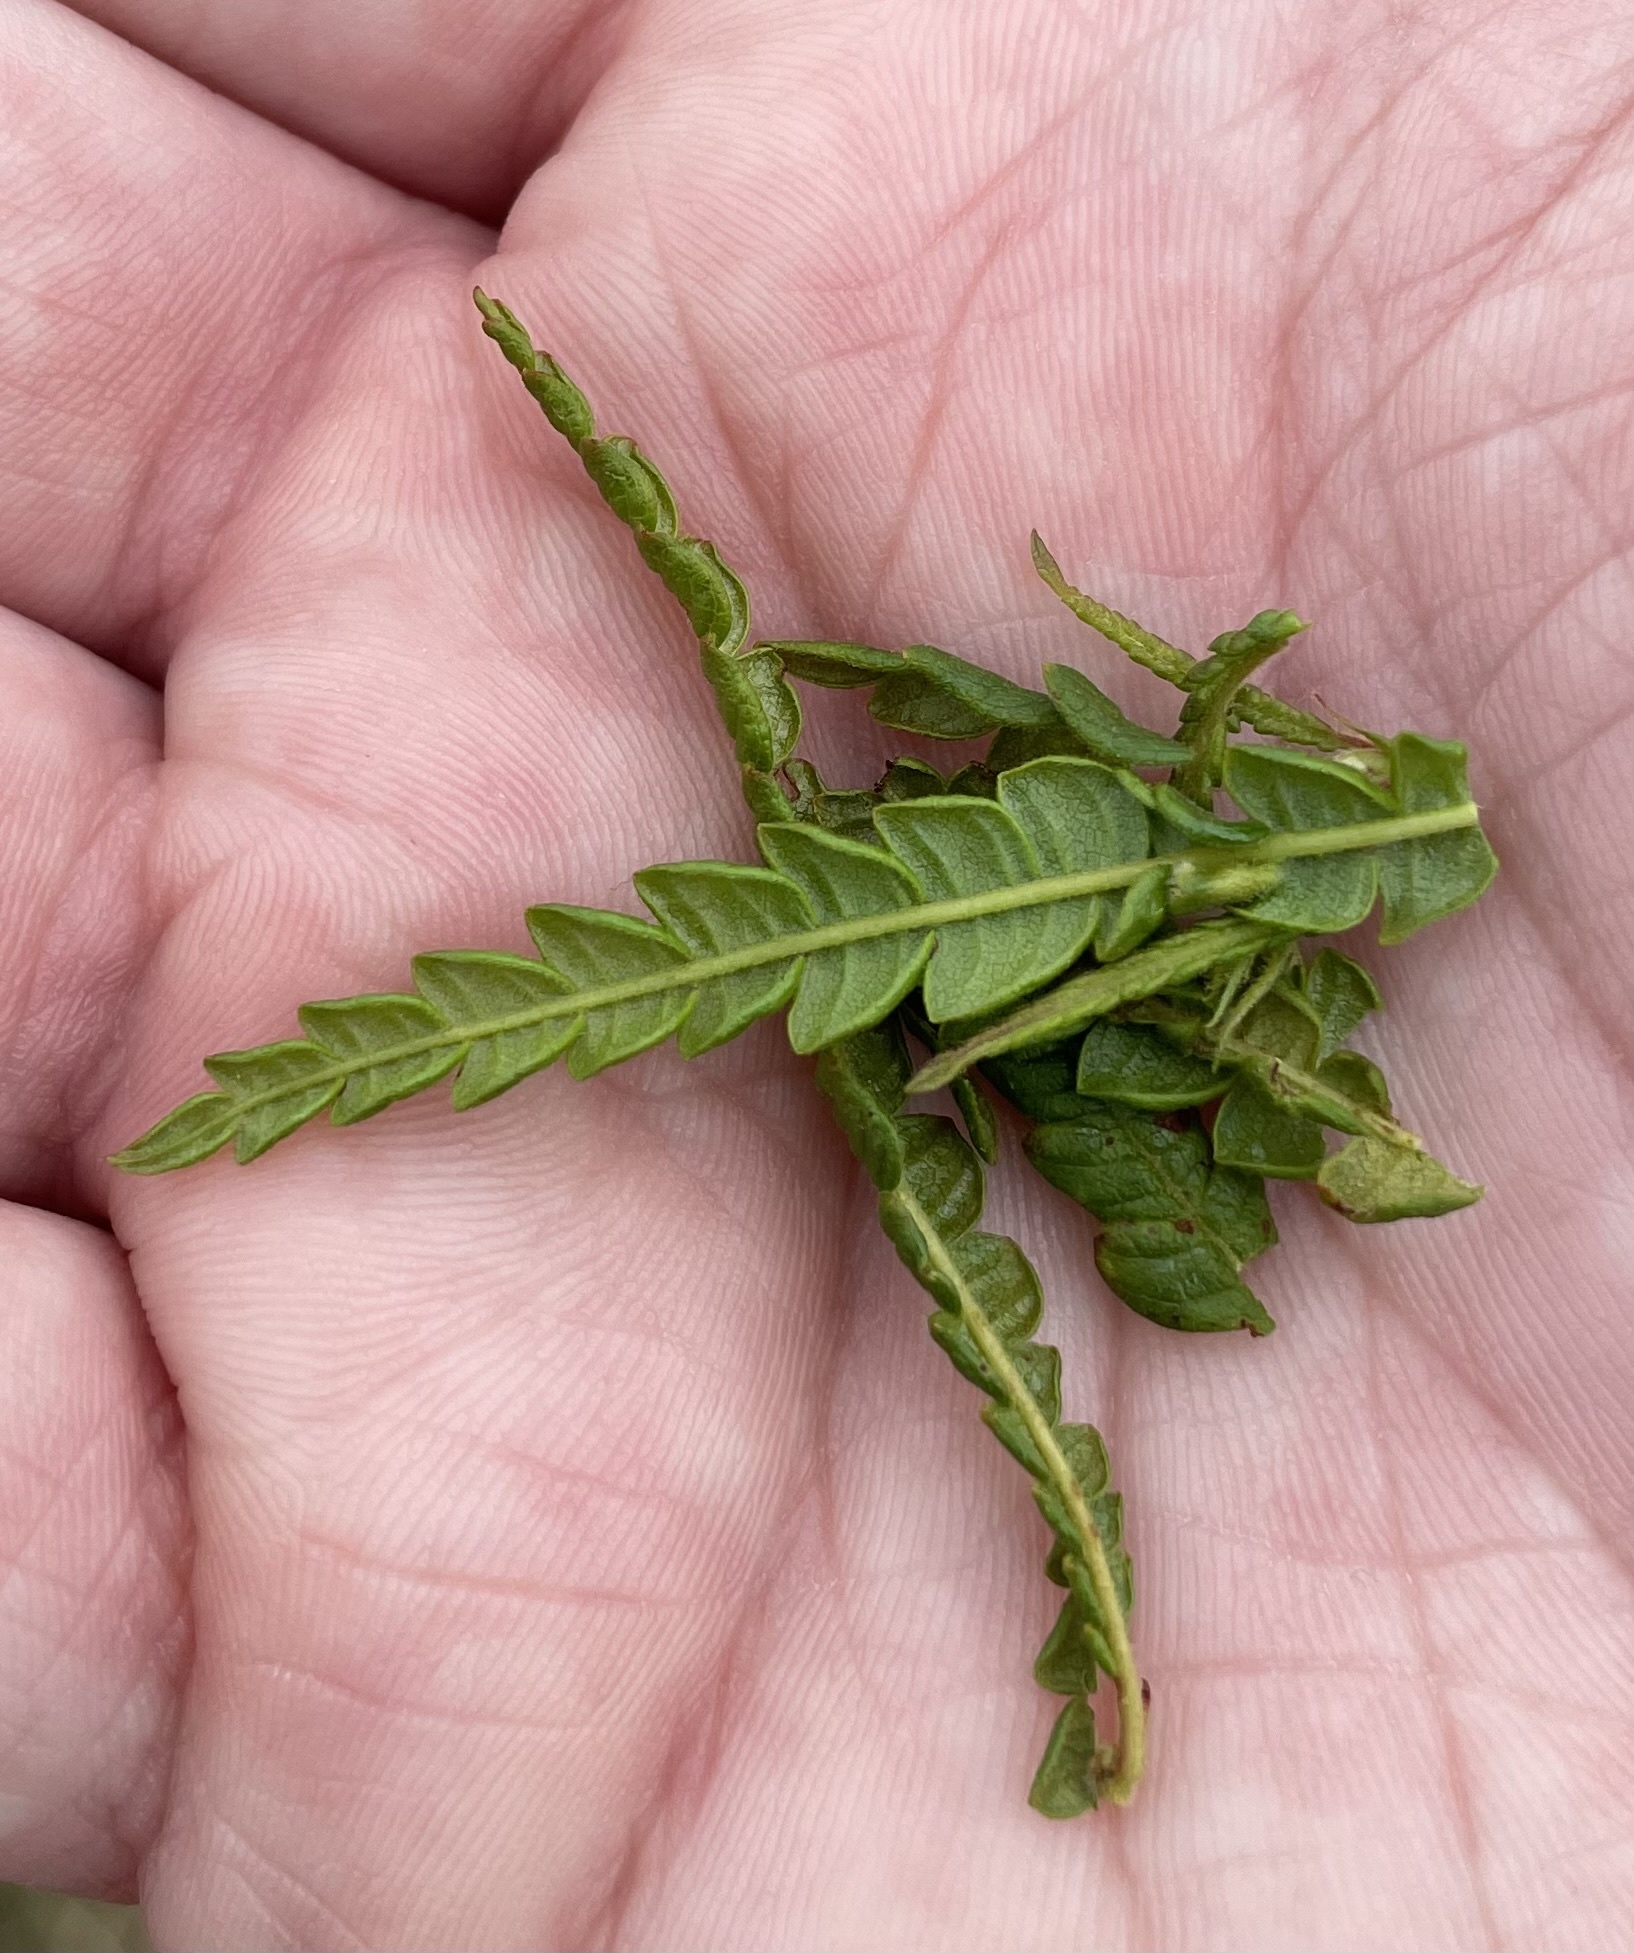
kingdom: Plantae
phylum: Tracheophyta
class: Magnoliopsida
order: Fagales
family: Myricaceae
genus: Comptonia
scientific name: Comptonia peregrina
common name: Sweet-fern
